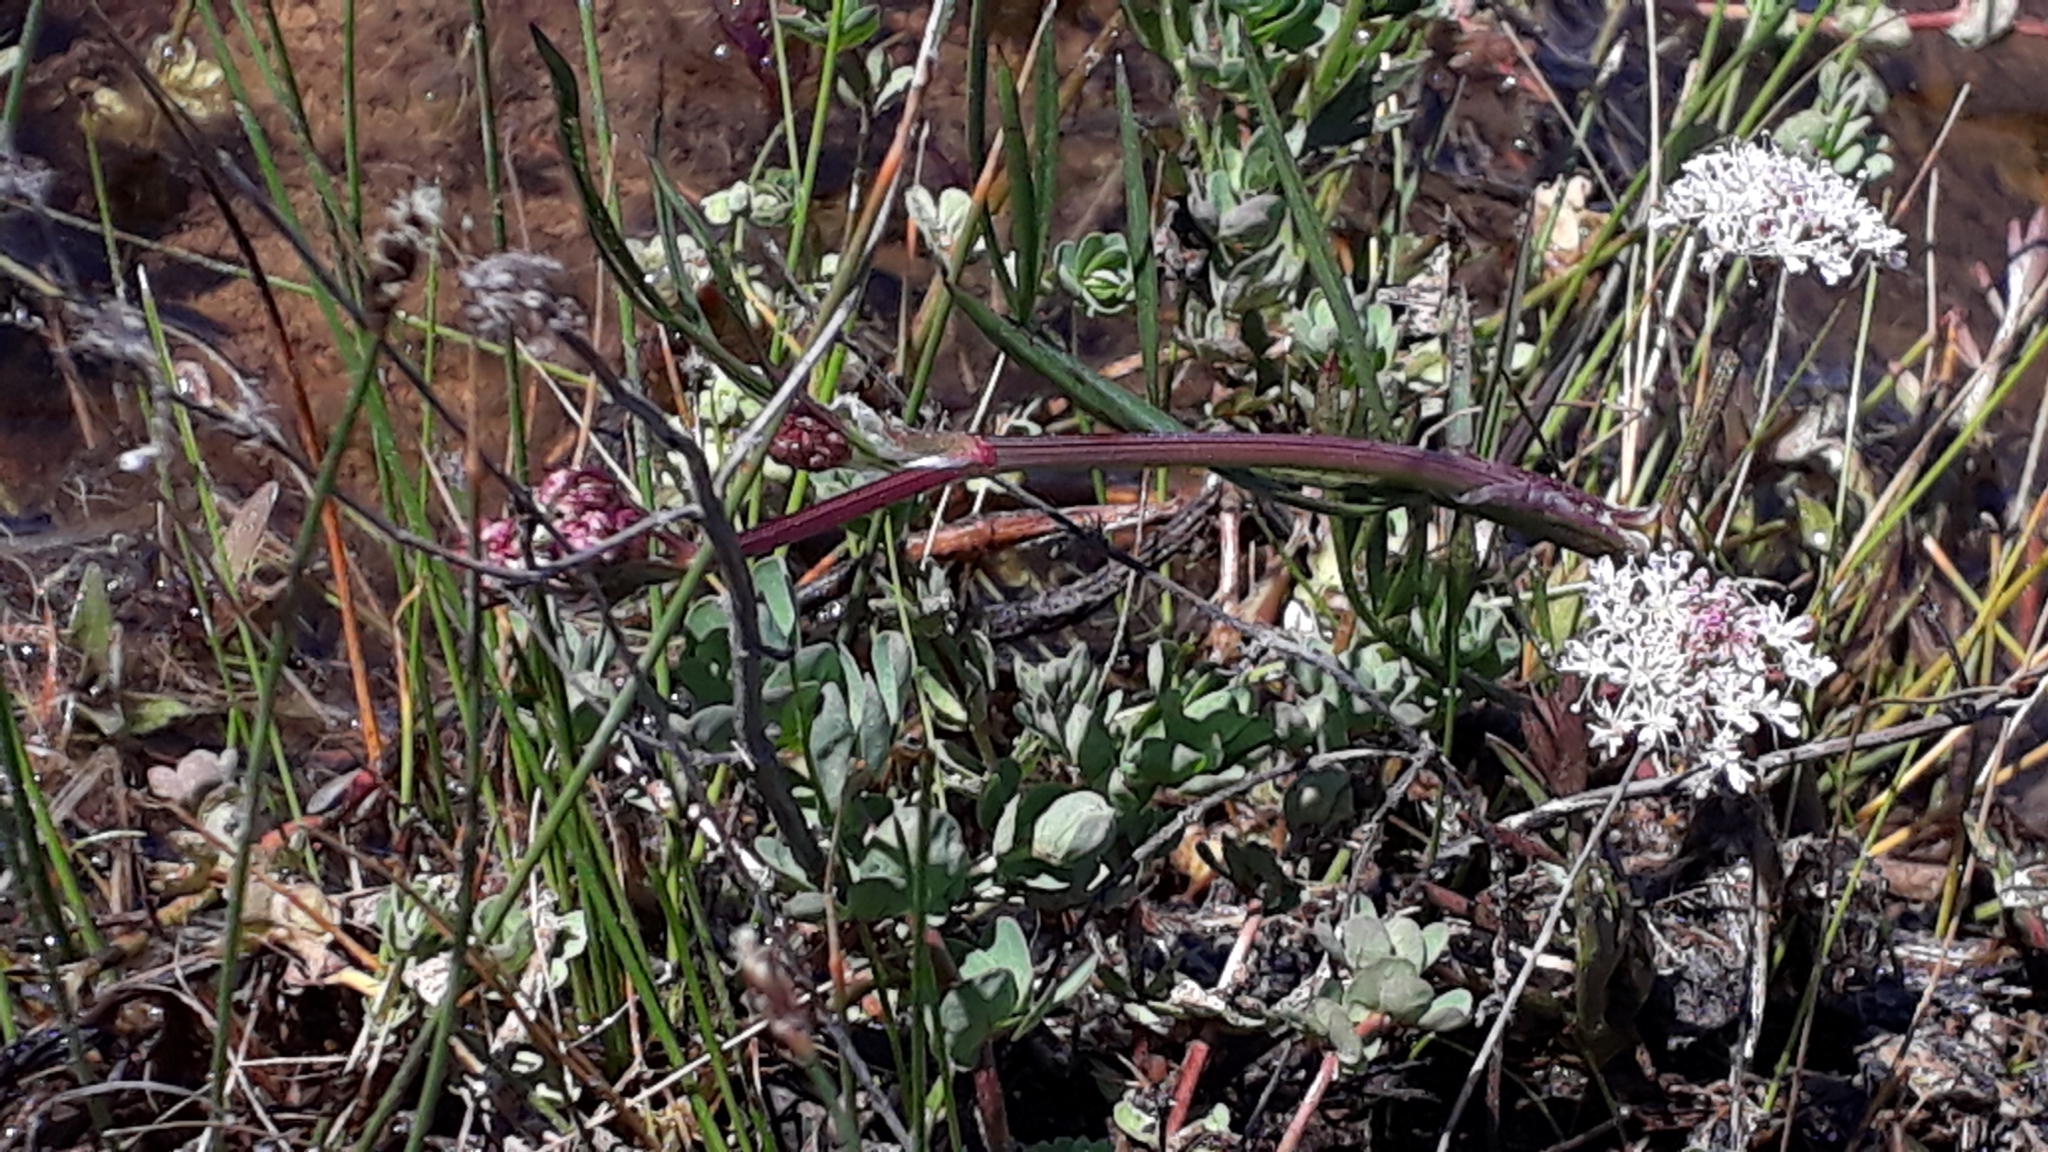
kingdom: Plantae
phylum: Tracheophyta
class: Magnoliopsida
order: Apiales
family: Apiaceae
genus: Oenanthe
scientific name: Oenanthe globulosa
